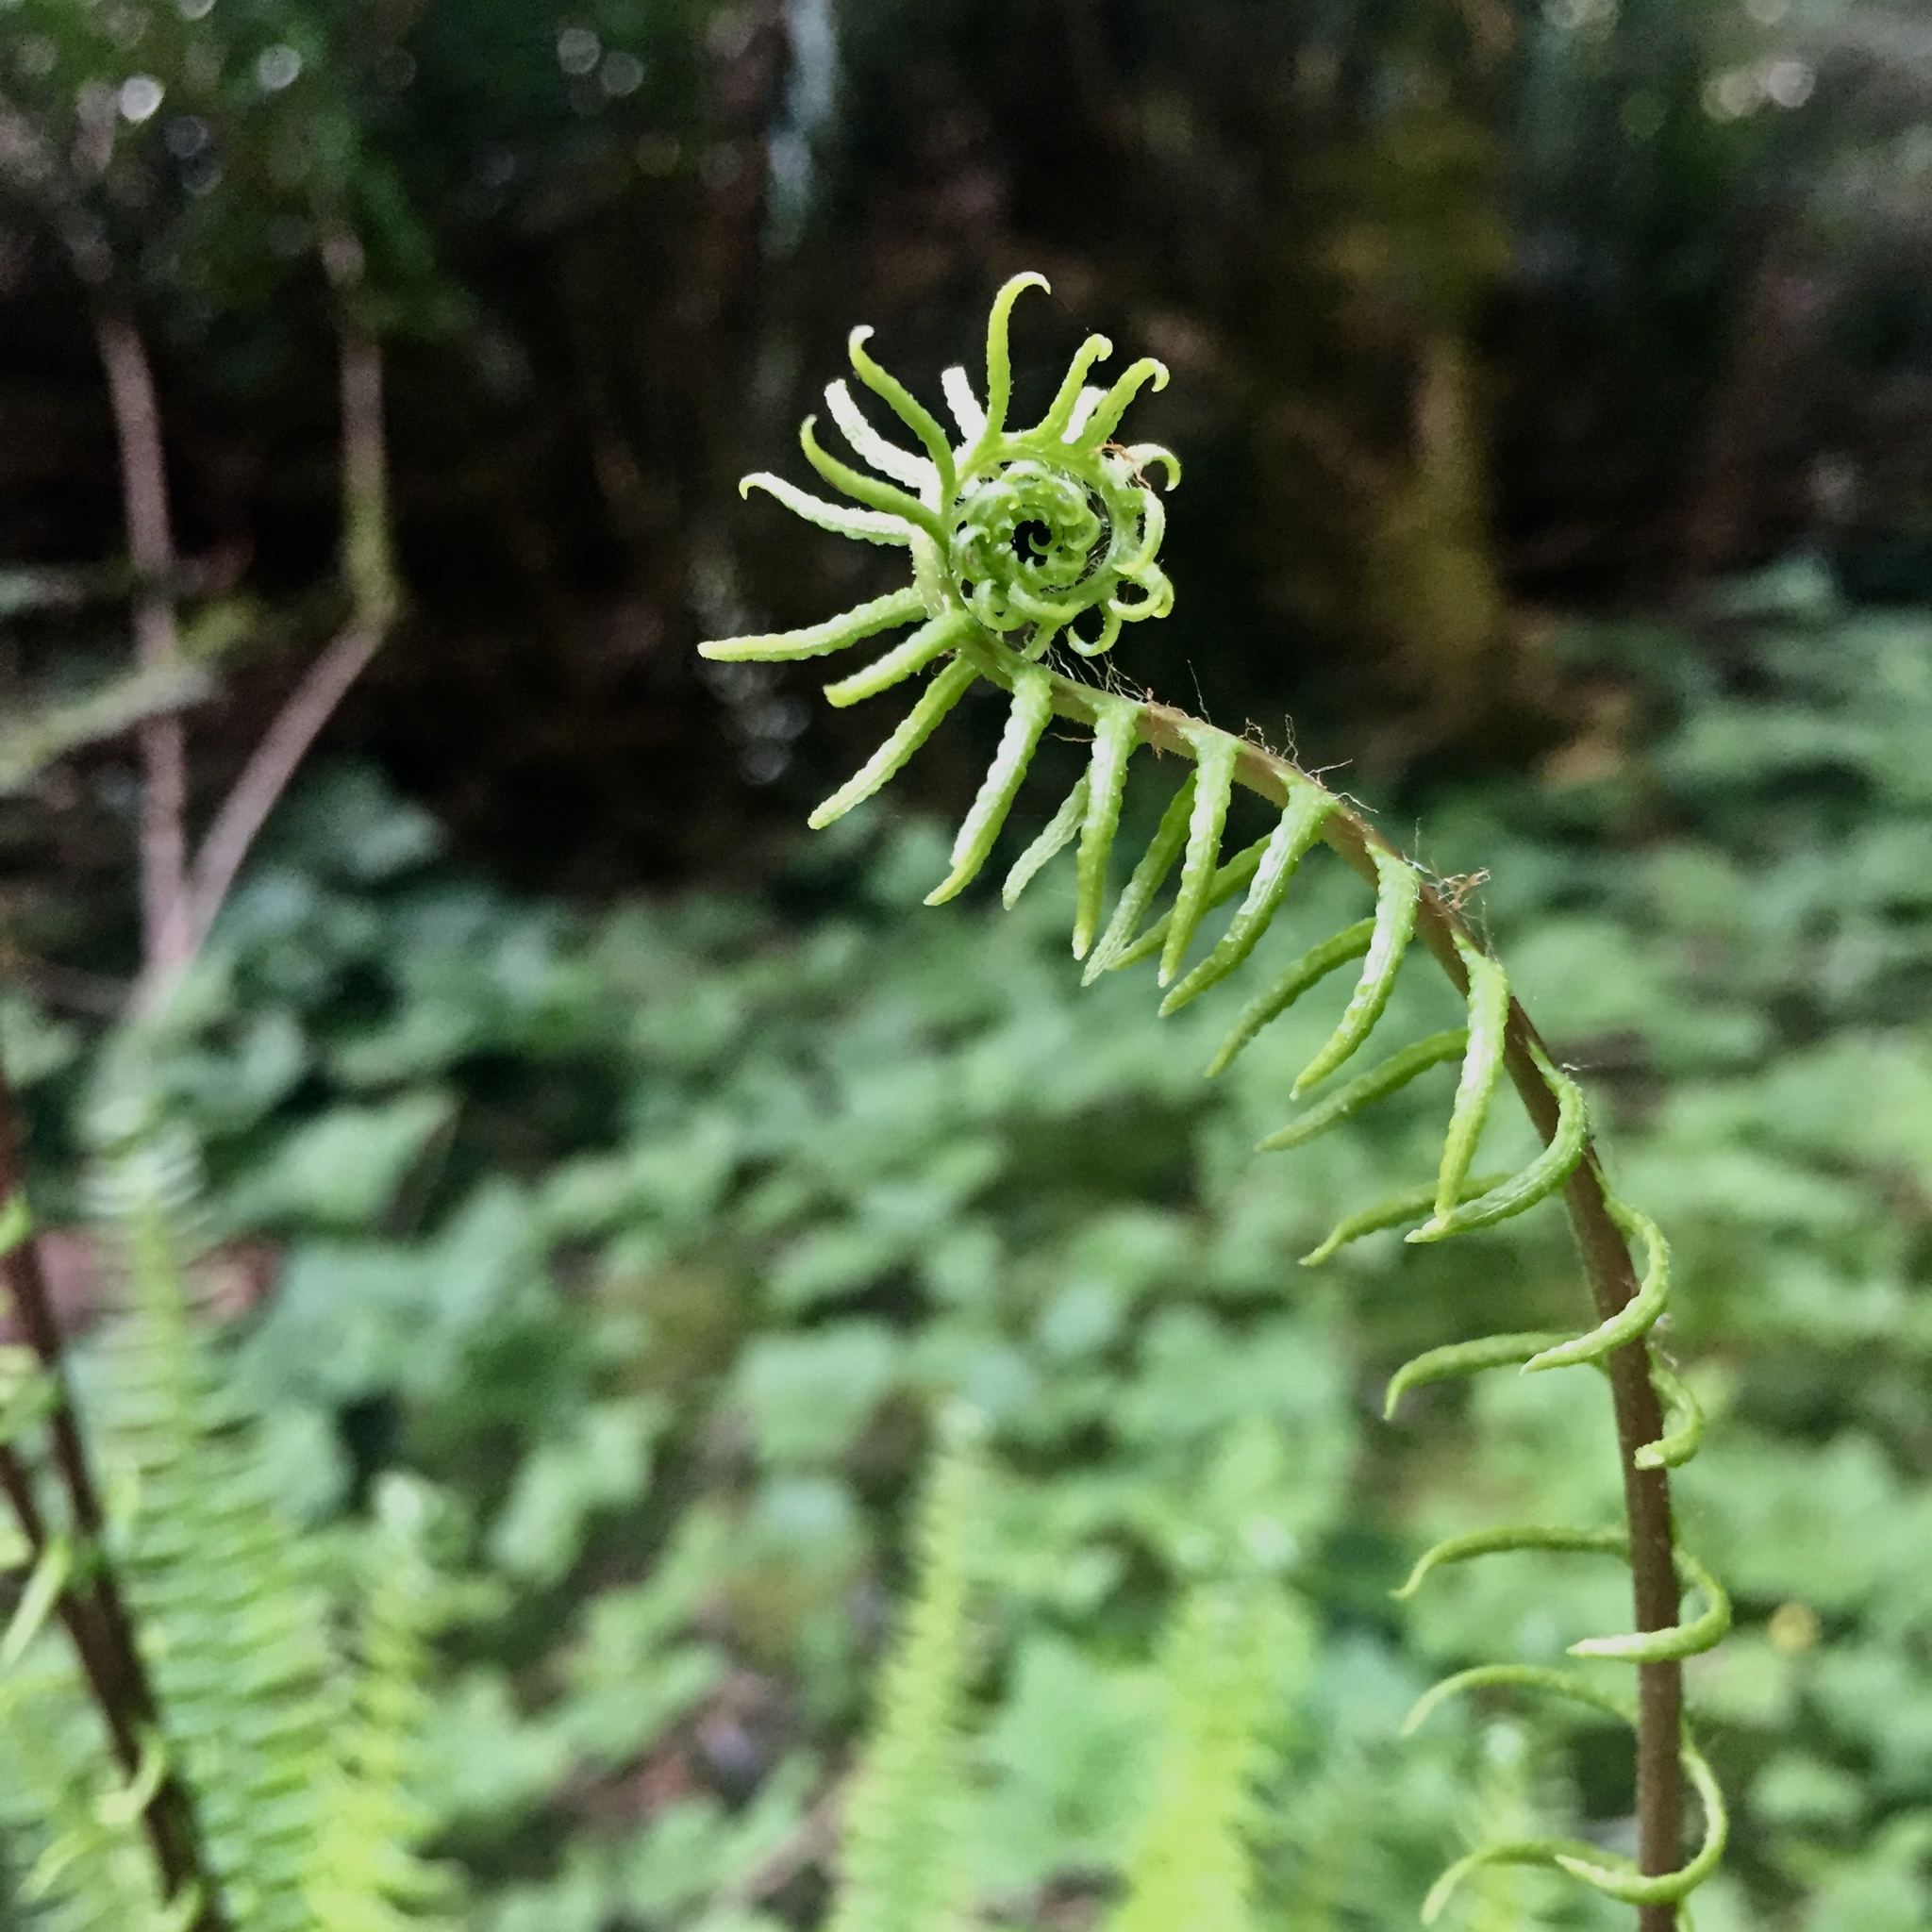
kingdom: Plantae
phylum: Tracheophyta
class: Polypodiopsida
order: Polypodiales
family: Blechnaceae
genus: Struthiopteris
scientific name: Struthiopteris spicant
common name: Deer fern
